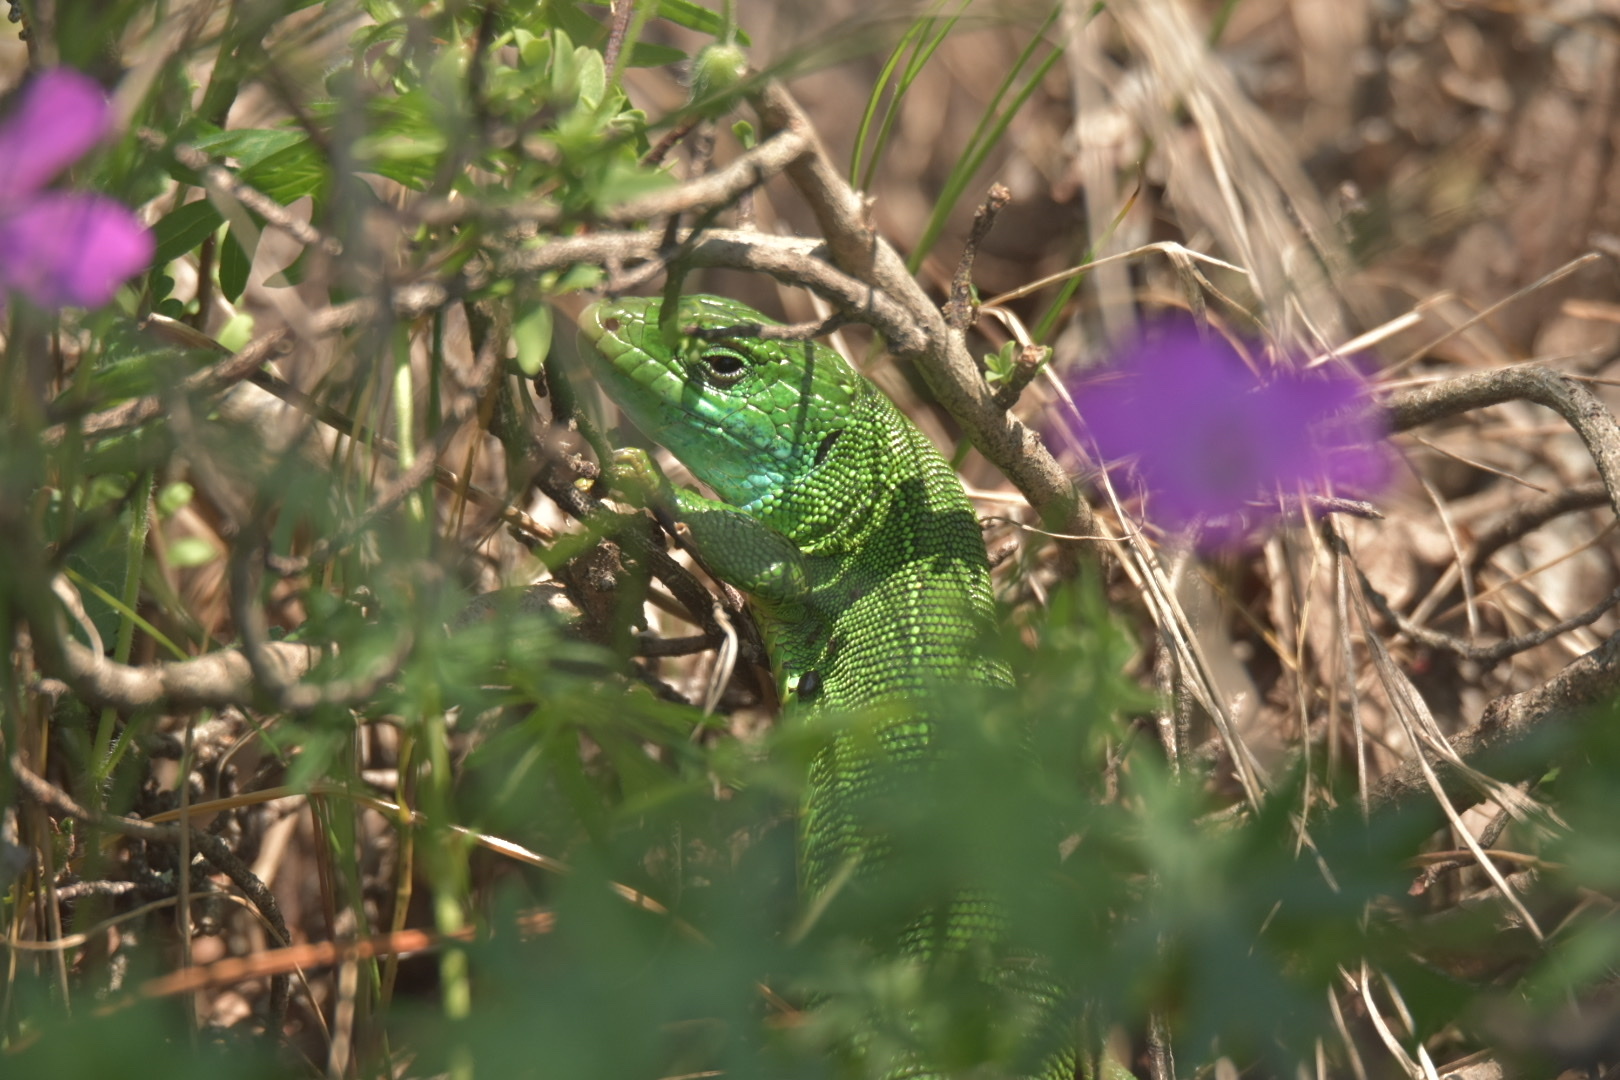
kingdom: Animalia
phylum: Chordata
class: Squamata
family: Lacertidae
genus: Lacerta
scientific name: Lacerta viridis
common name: European green lizard
